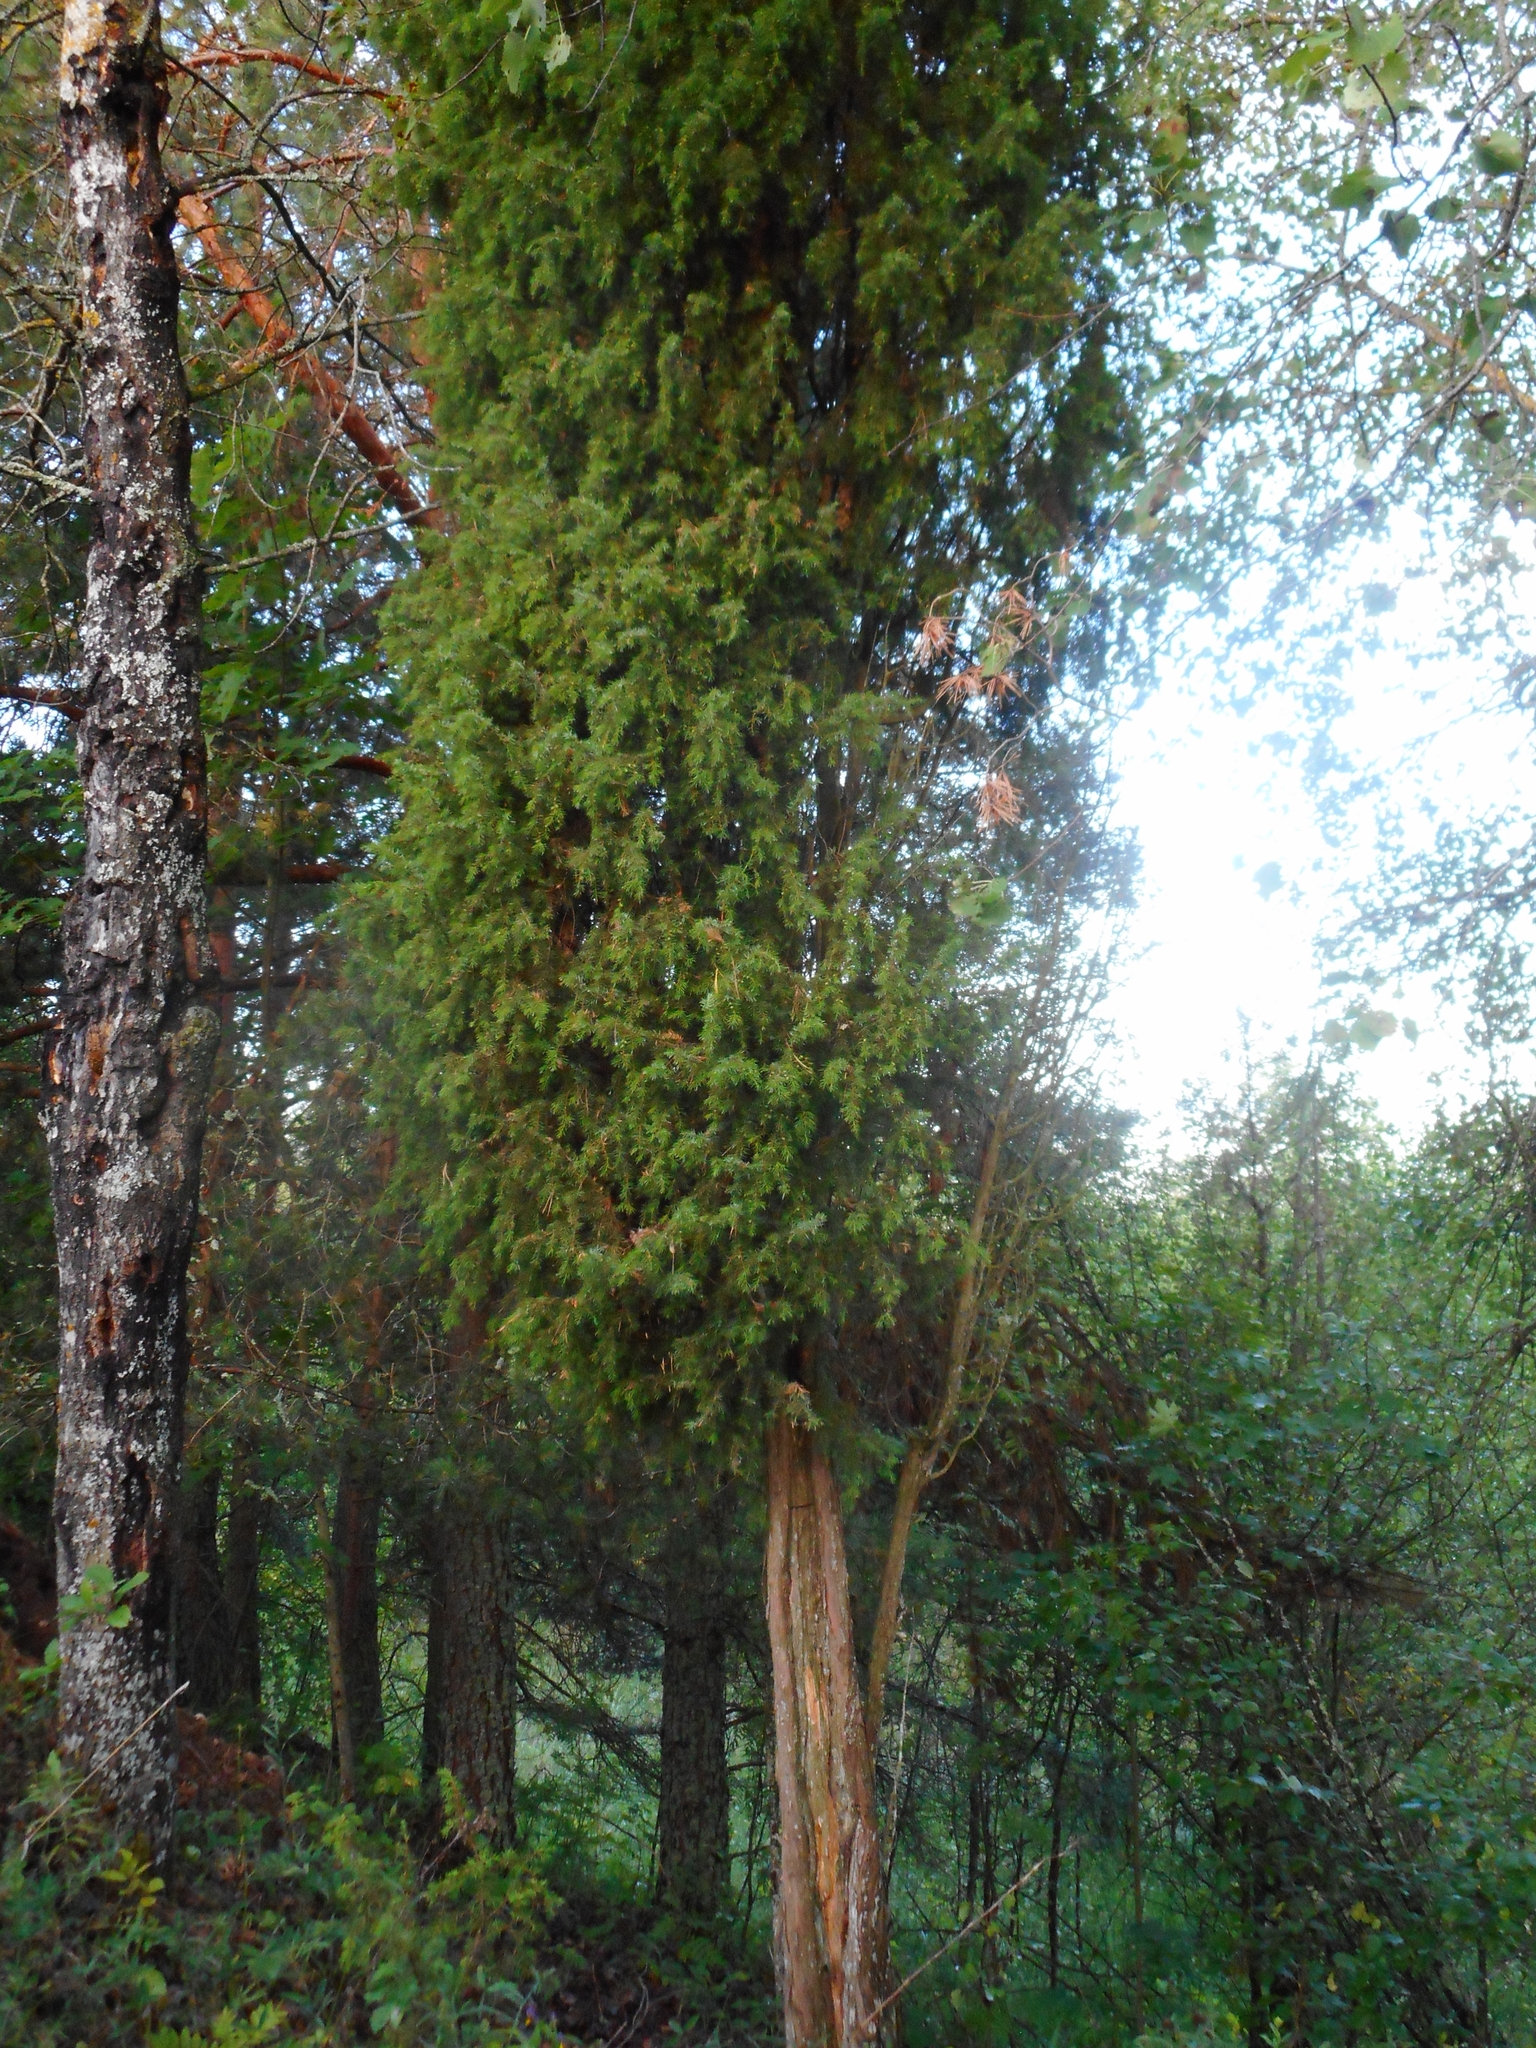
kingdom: Plantae
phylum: Tracheophyta
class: Pinopsida
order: Pinales
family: Cupressaceae
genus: Juniperus
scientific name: Juniperus communis
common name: Common juniper
